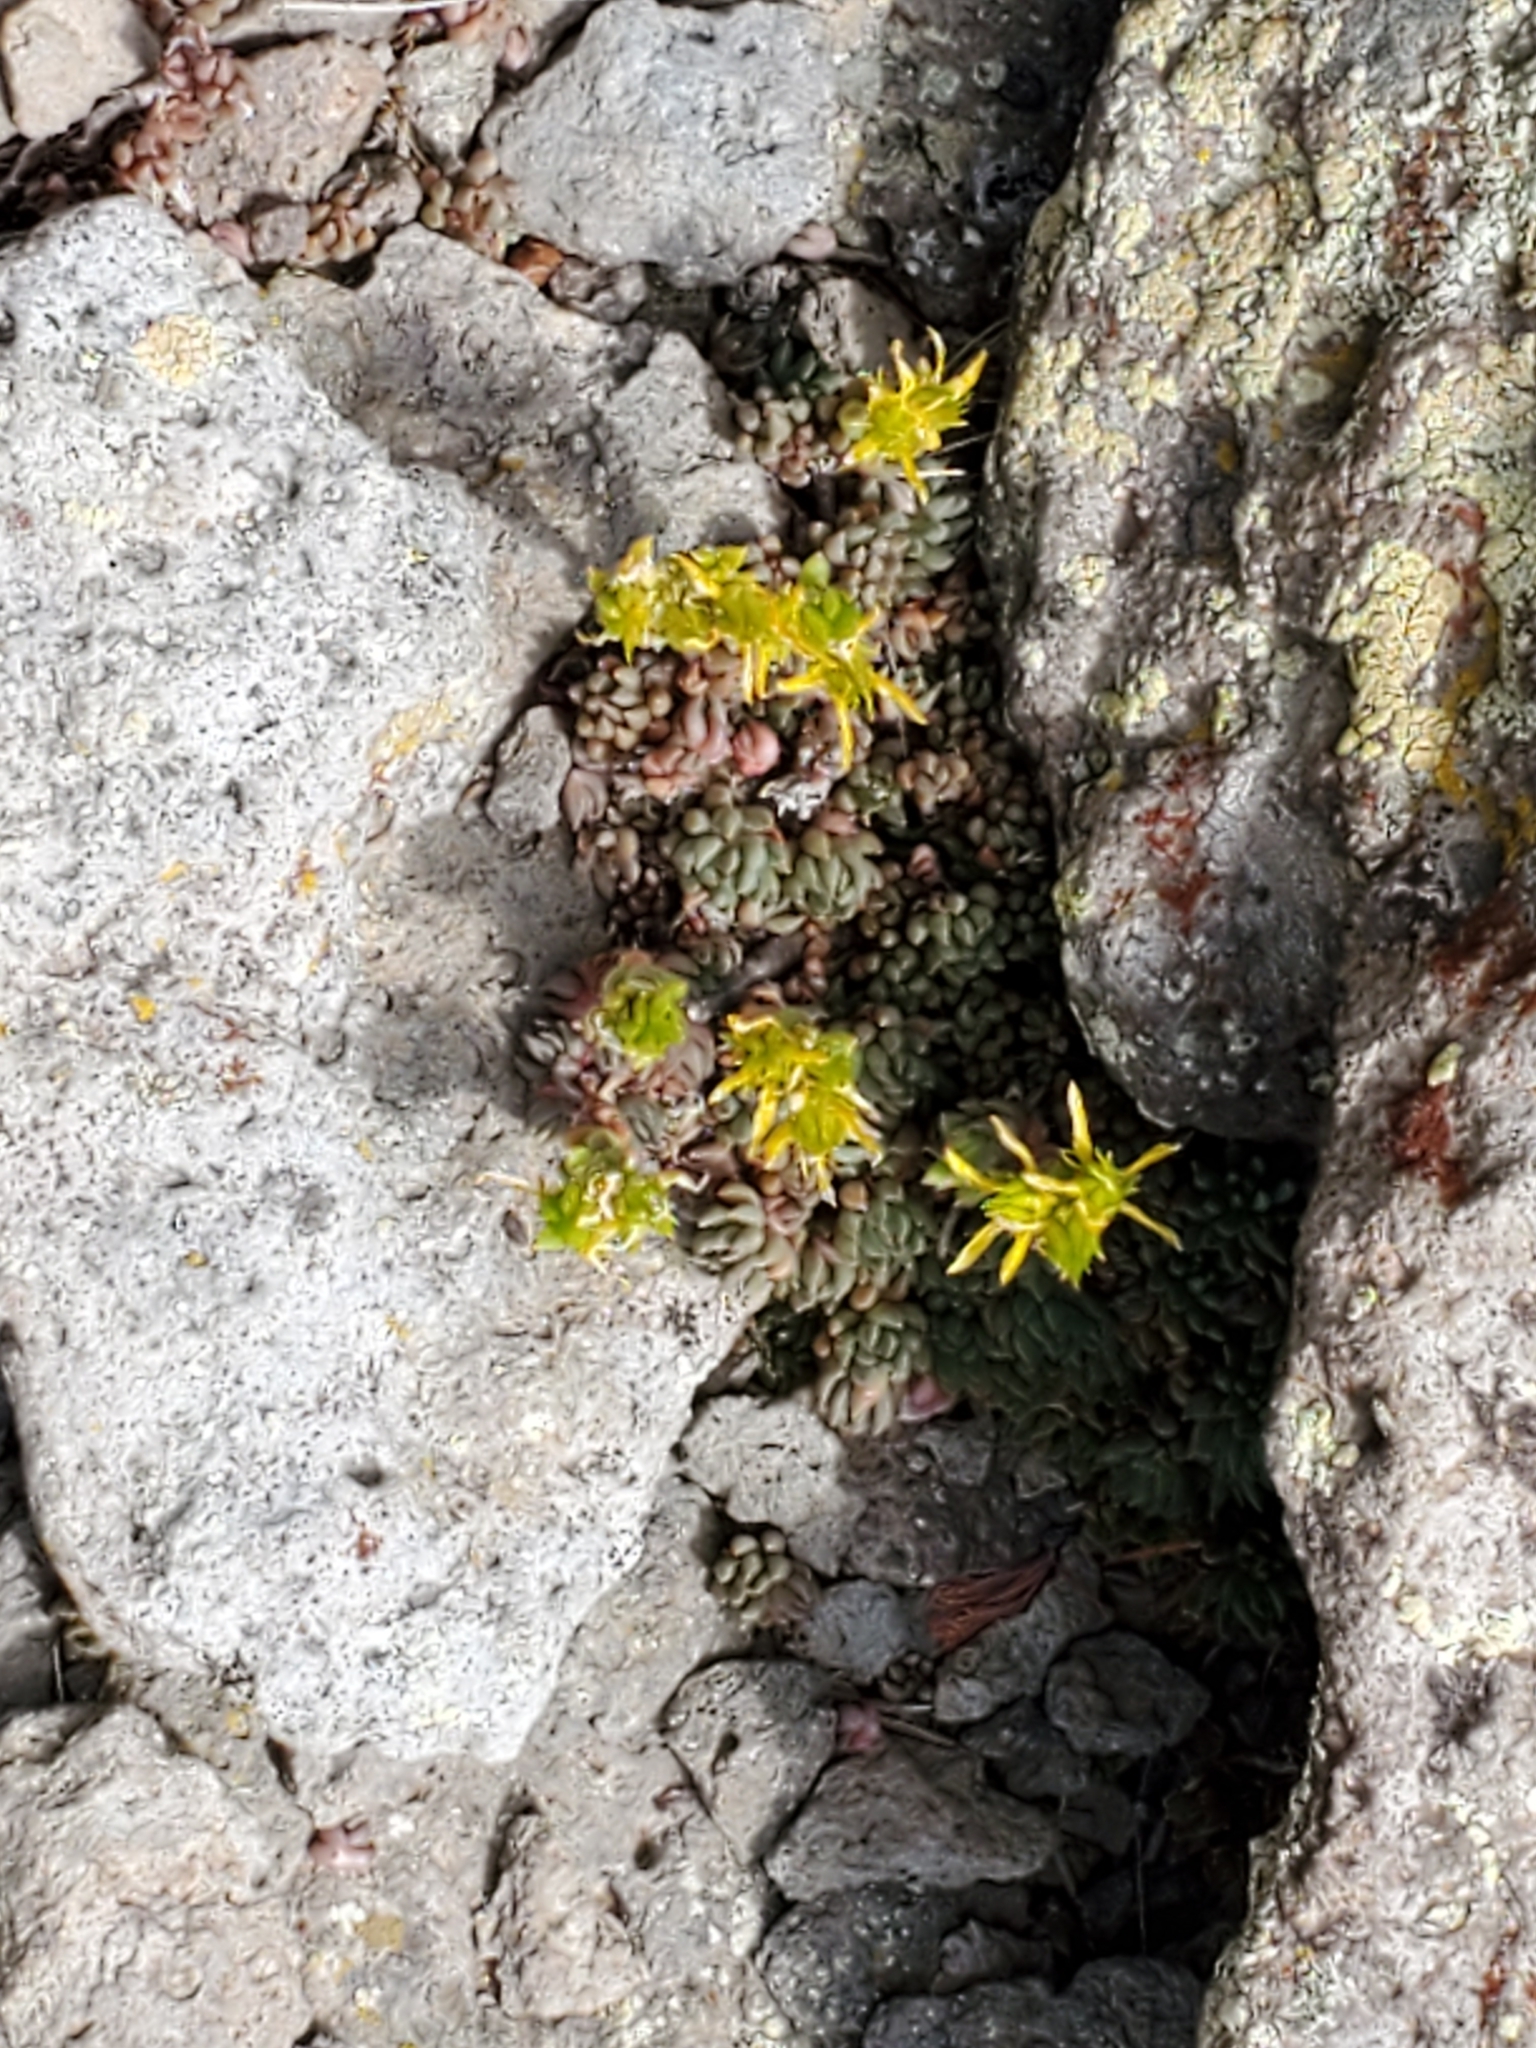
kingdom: Plantae
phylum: Tracheophyta
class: Magnoliopsida
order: Saxifragales
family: Crassulaceae
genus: Sedum
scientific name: Sedum lanceolatum
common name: Common stonecrop
